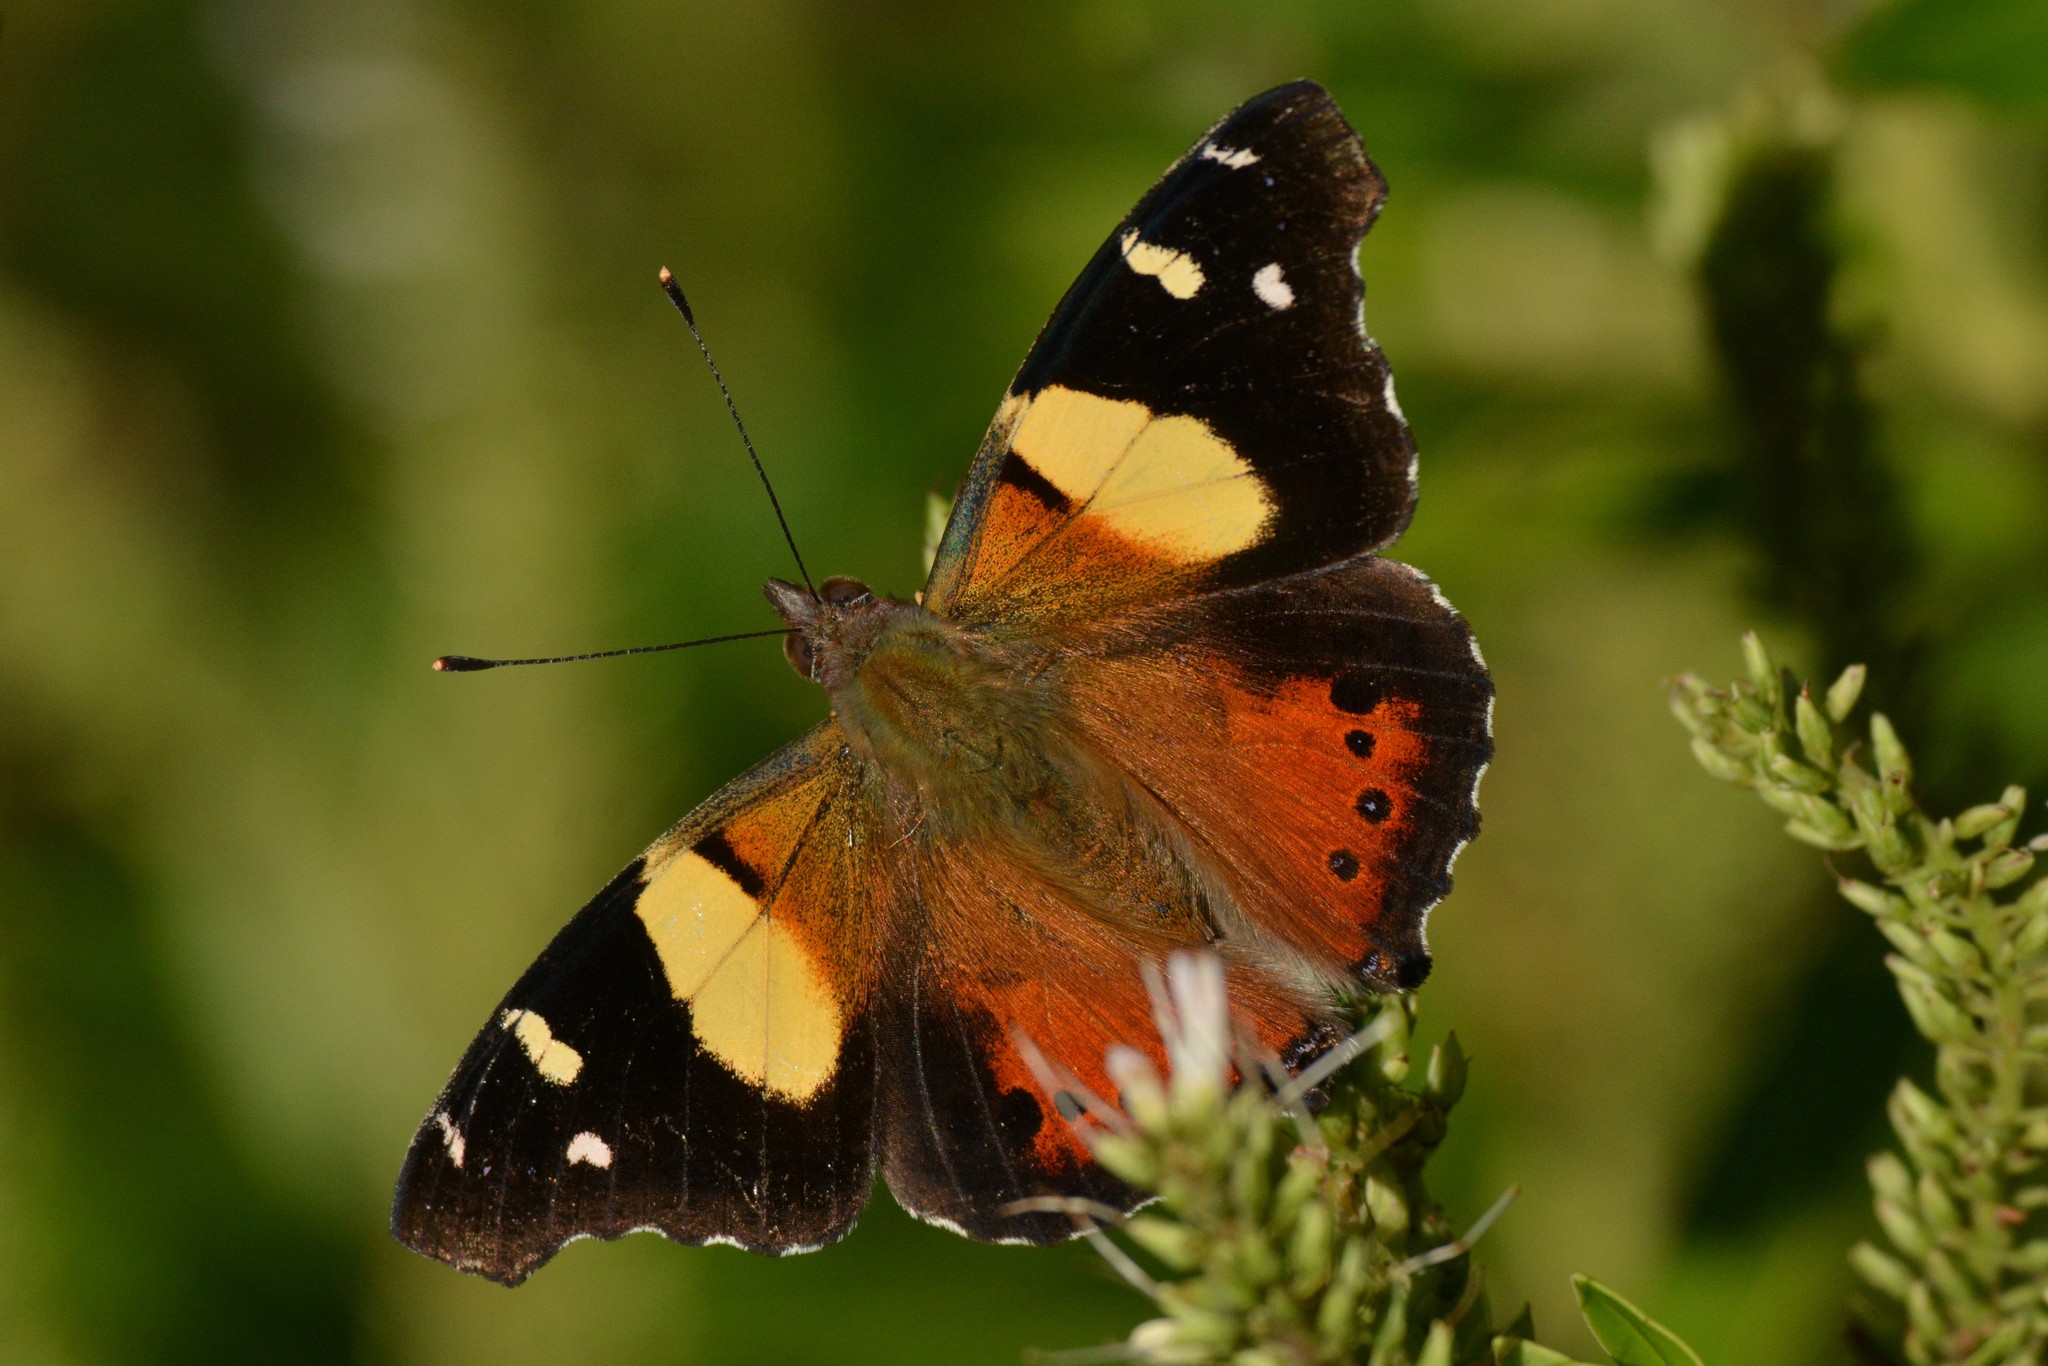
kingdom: Animalia
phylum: Arthropoda
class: Insecta
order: Lepidoptera
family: Nymphalidae
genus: Vanessa
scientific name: Vanessa itea
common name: Yellow admiral
